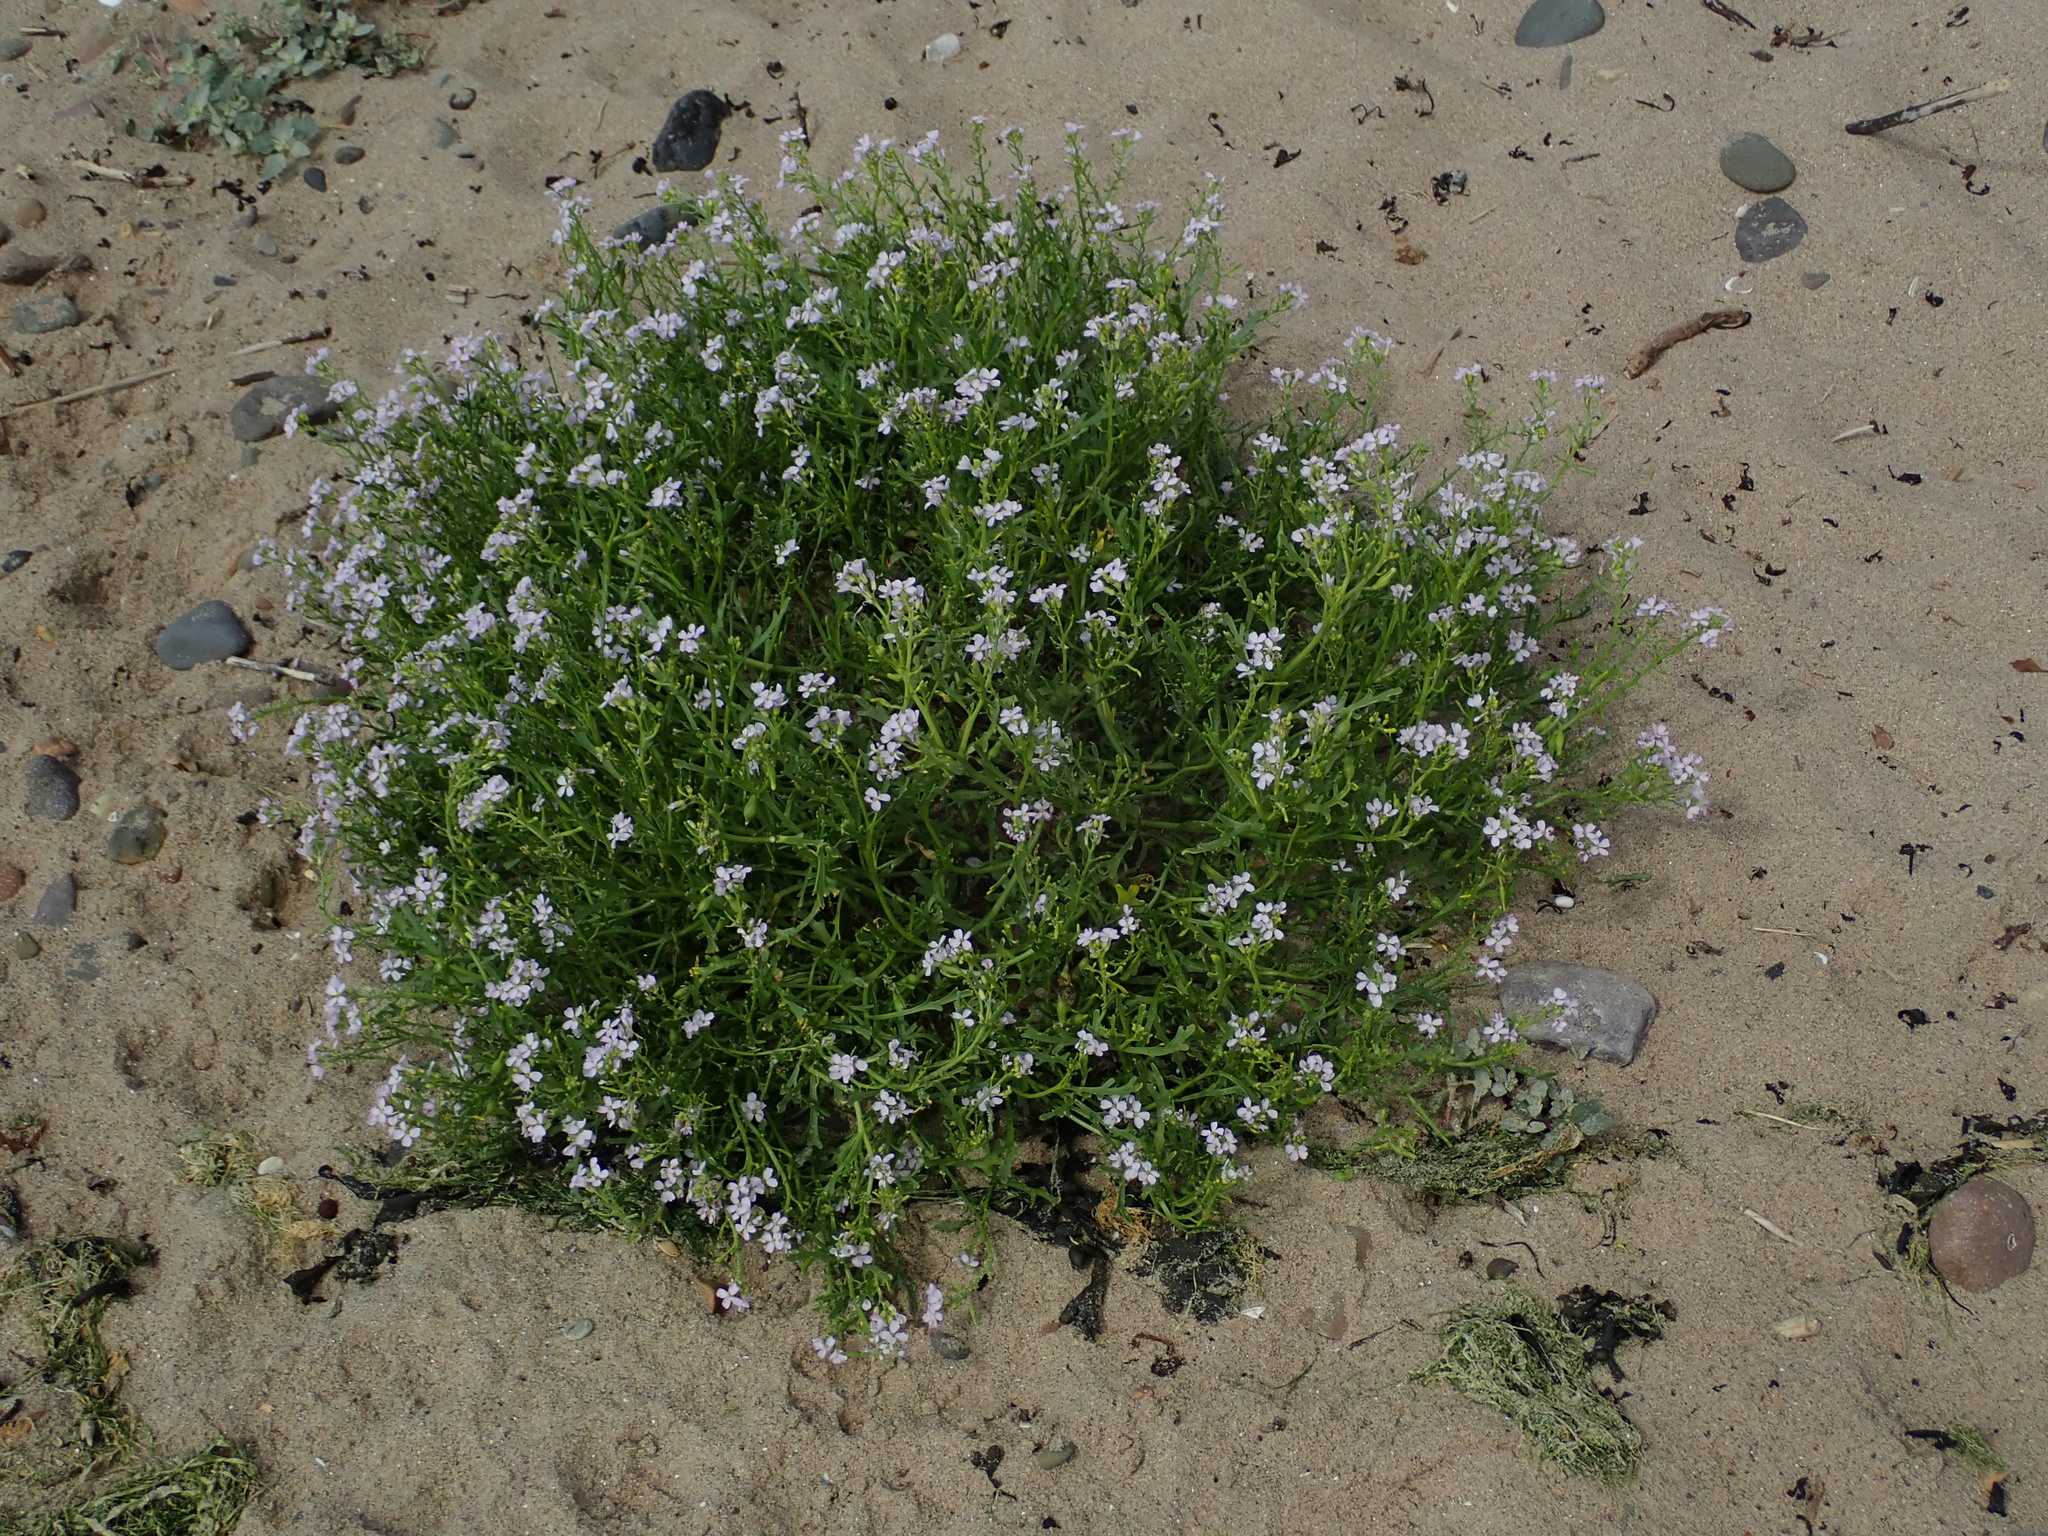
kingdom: Plantae
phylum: Tracheophyta
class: Magnoliopsida
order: Brassicales
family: Brassicaceae
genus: Cakile
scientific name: Cakile maritima
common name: Sea rocket
